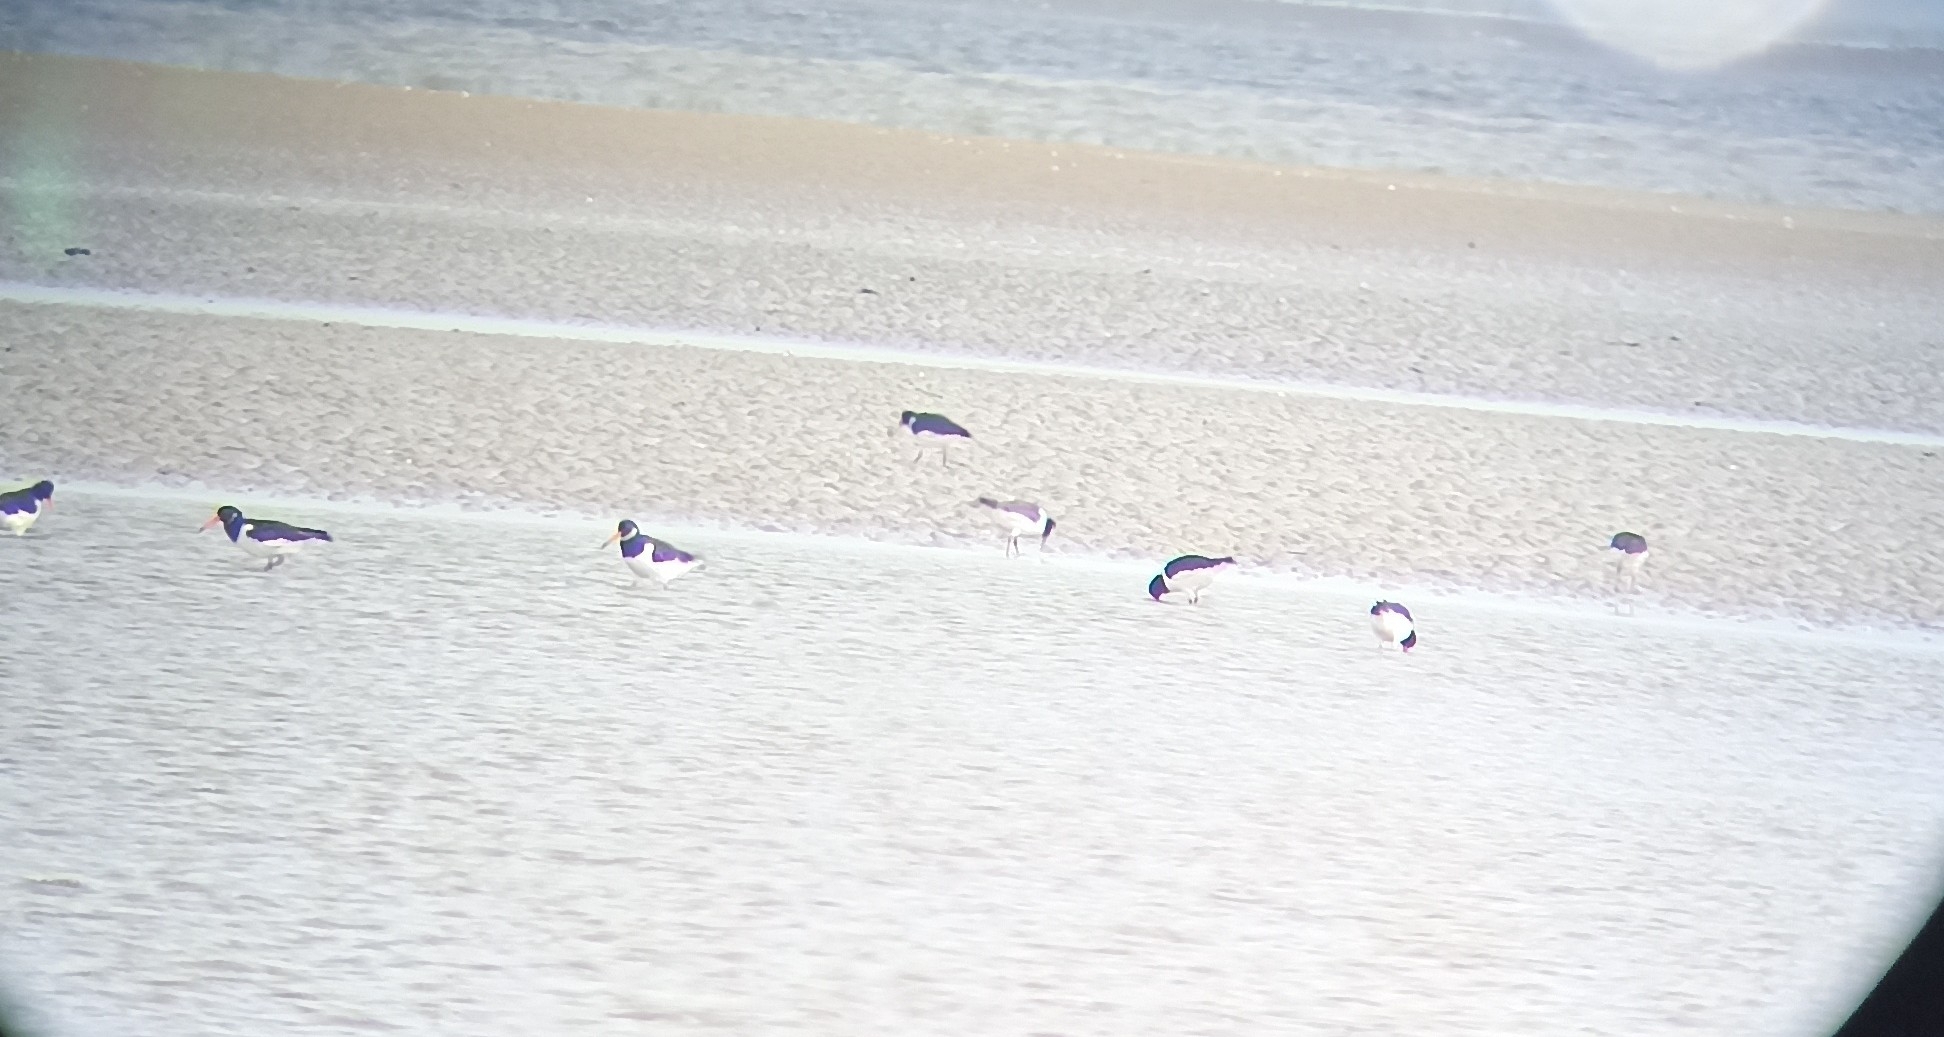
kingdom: Animalia
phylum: Chordata
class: Aves
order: Charadriiformes
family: Haematopodidae
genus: Haematopus
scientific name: Haematopus ostralegus
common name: Eurasian oystercatcher
